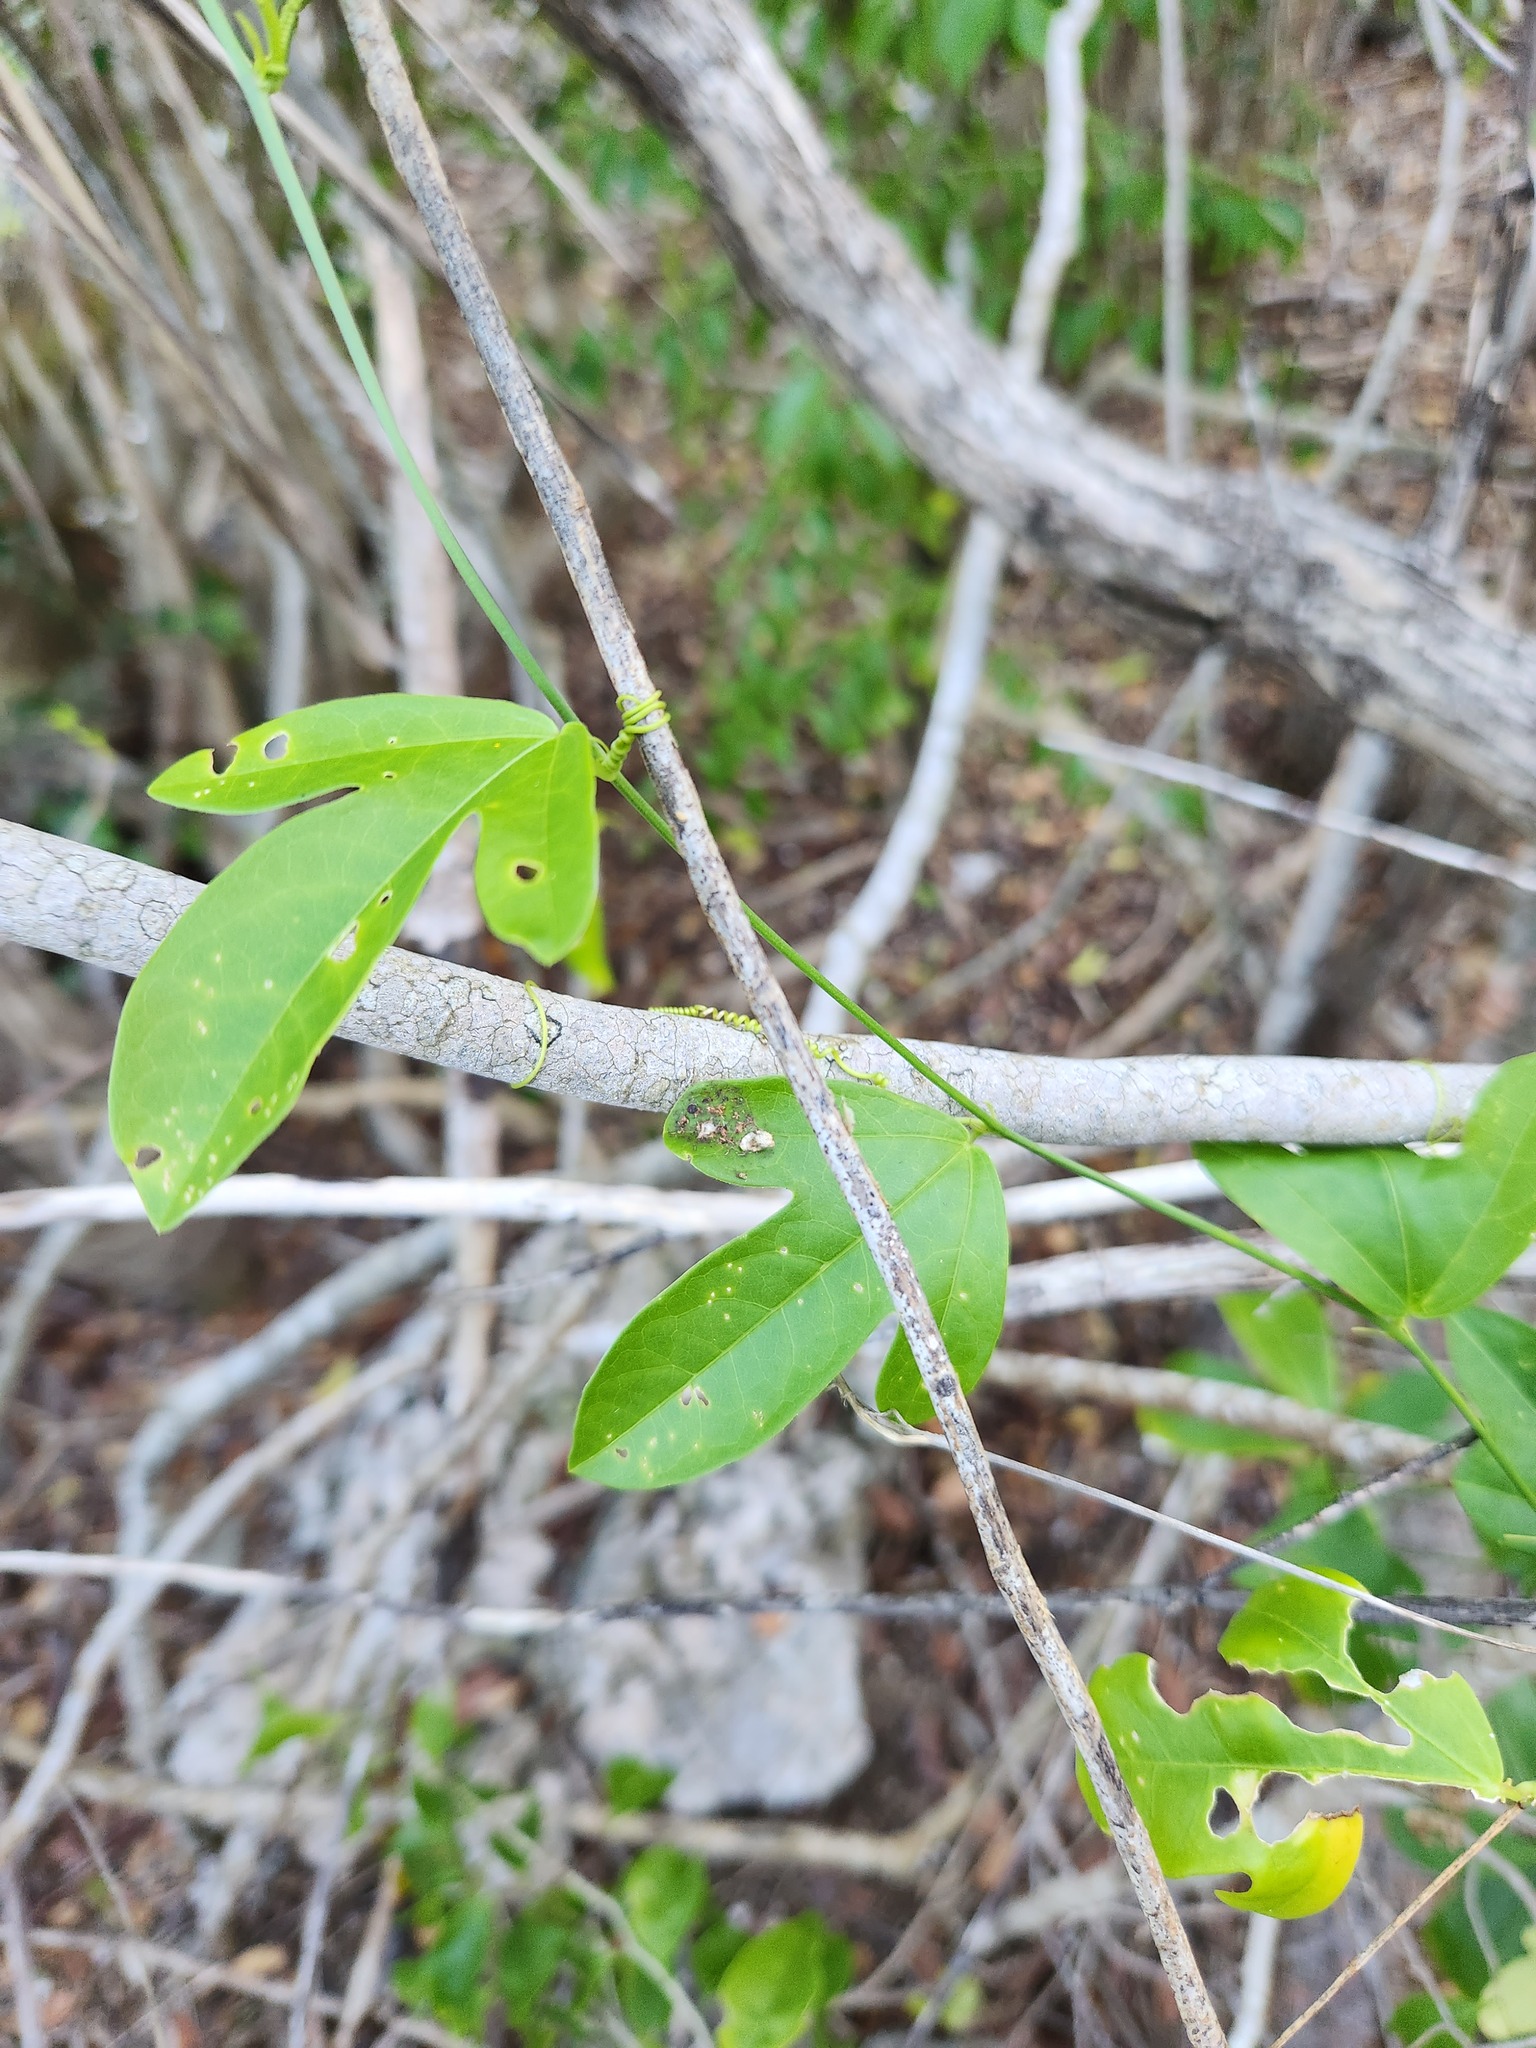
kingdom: Plantae
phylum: Tracheophyta
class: Magnoliopsida
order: Malpighiales
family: Passifloraceae
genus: Passiflora
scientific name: Passiflora pallida
